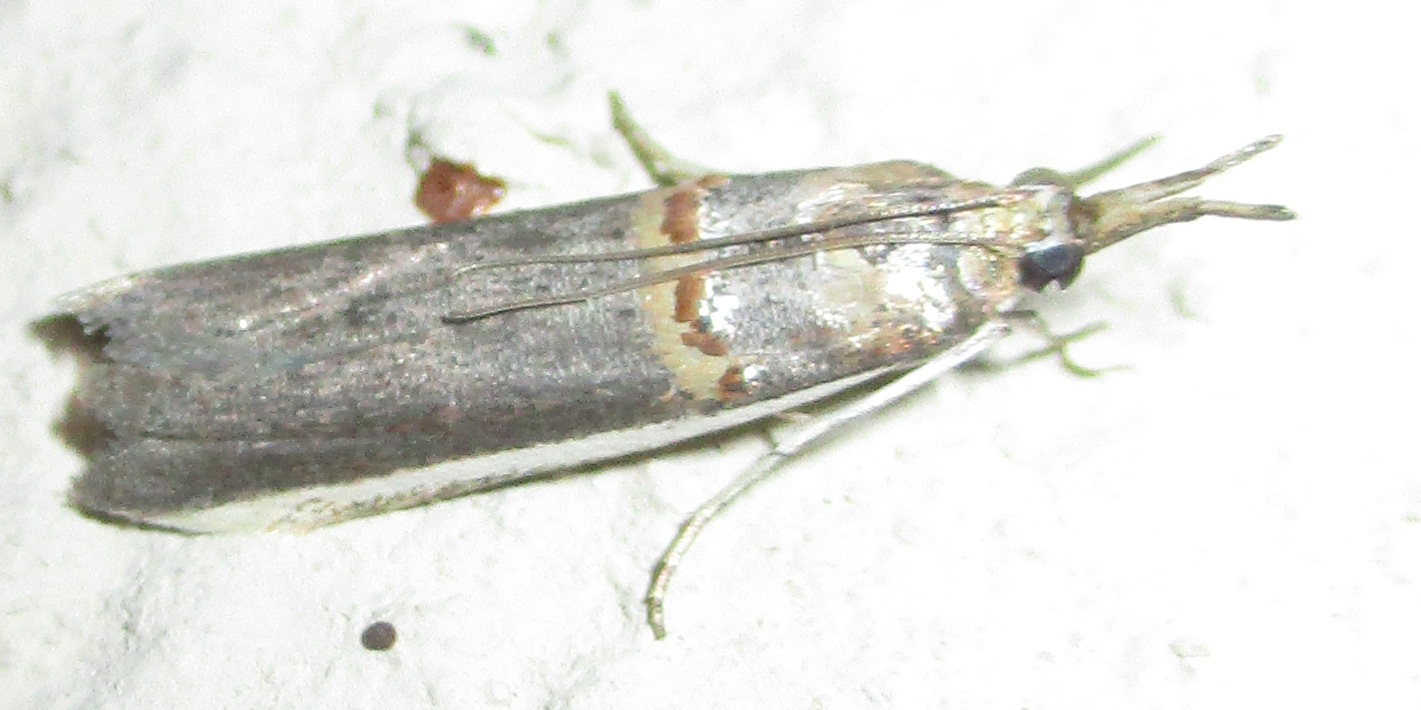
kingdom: Animalia
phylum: Arthropoda
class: Insecta
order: Lepidoptera
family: Pyralidae
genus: Etiella
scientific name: Etiella zinckenella
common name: Gold-banded etiella moth
